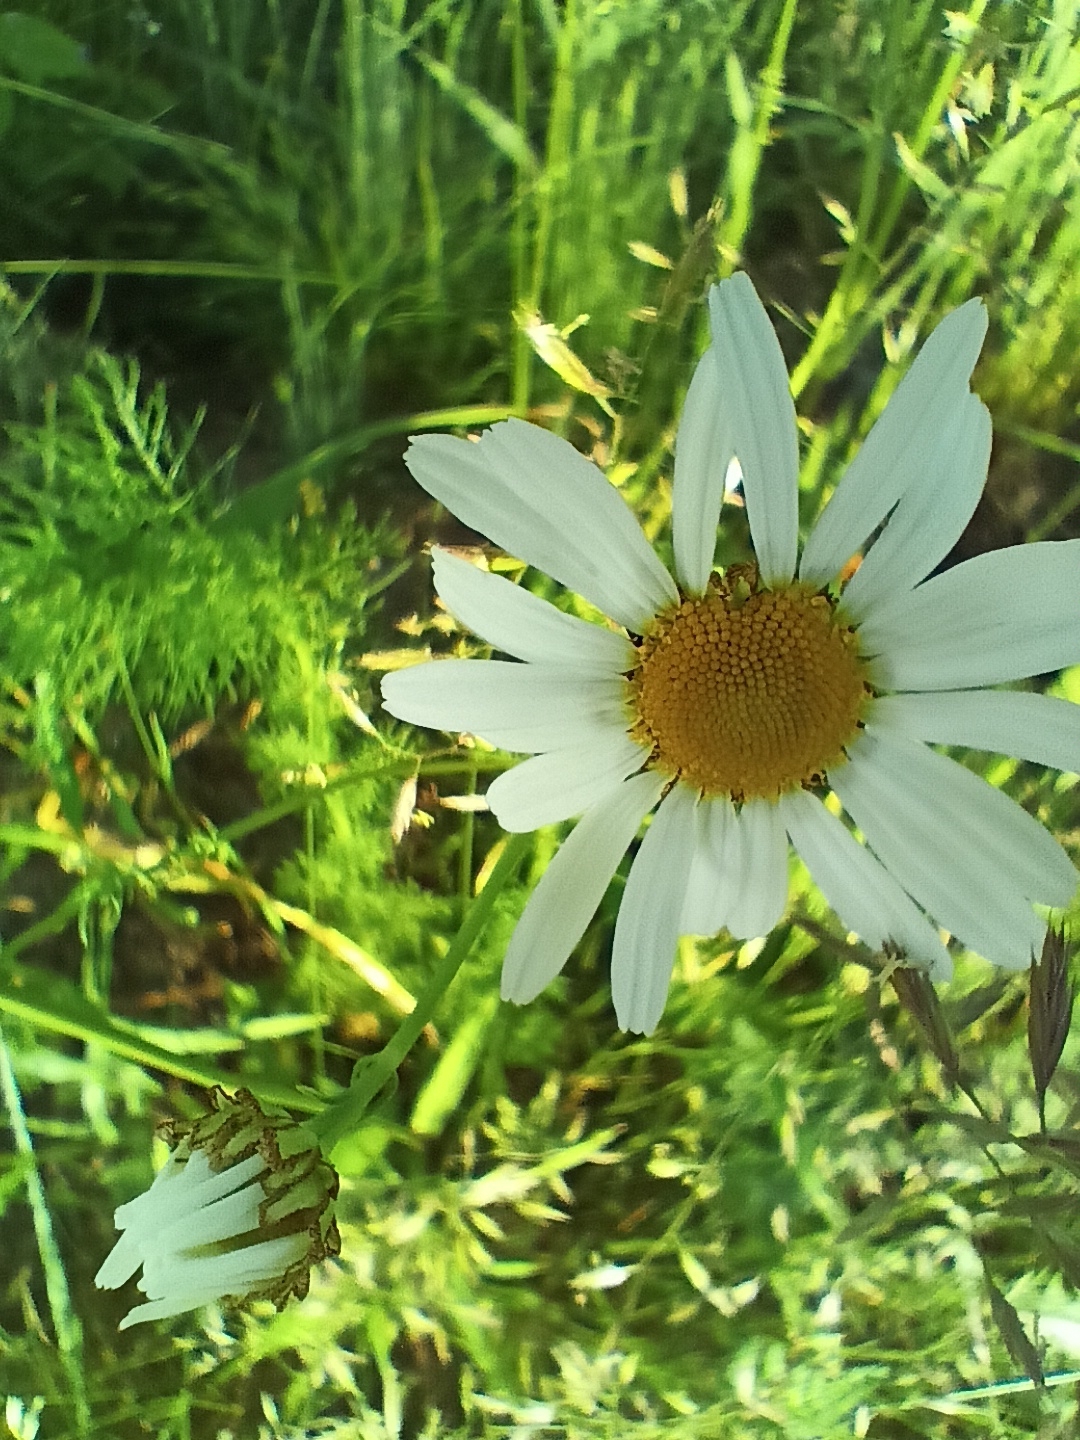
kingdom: Plantae
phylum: Tracheophyta
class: Magnoliopsida
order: Asterales
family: Asteraceae
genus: Tripleurospermum
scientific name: Tripleurospermum inodorum
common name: Scentless mayweed
